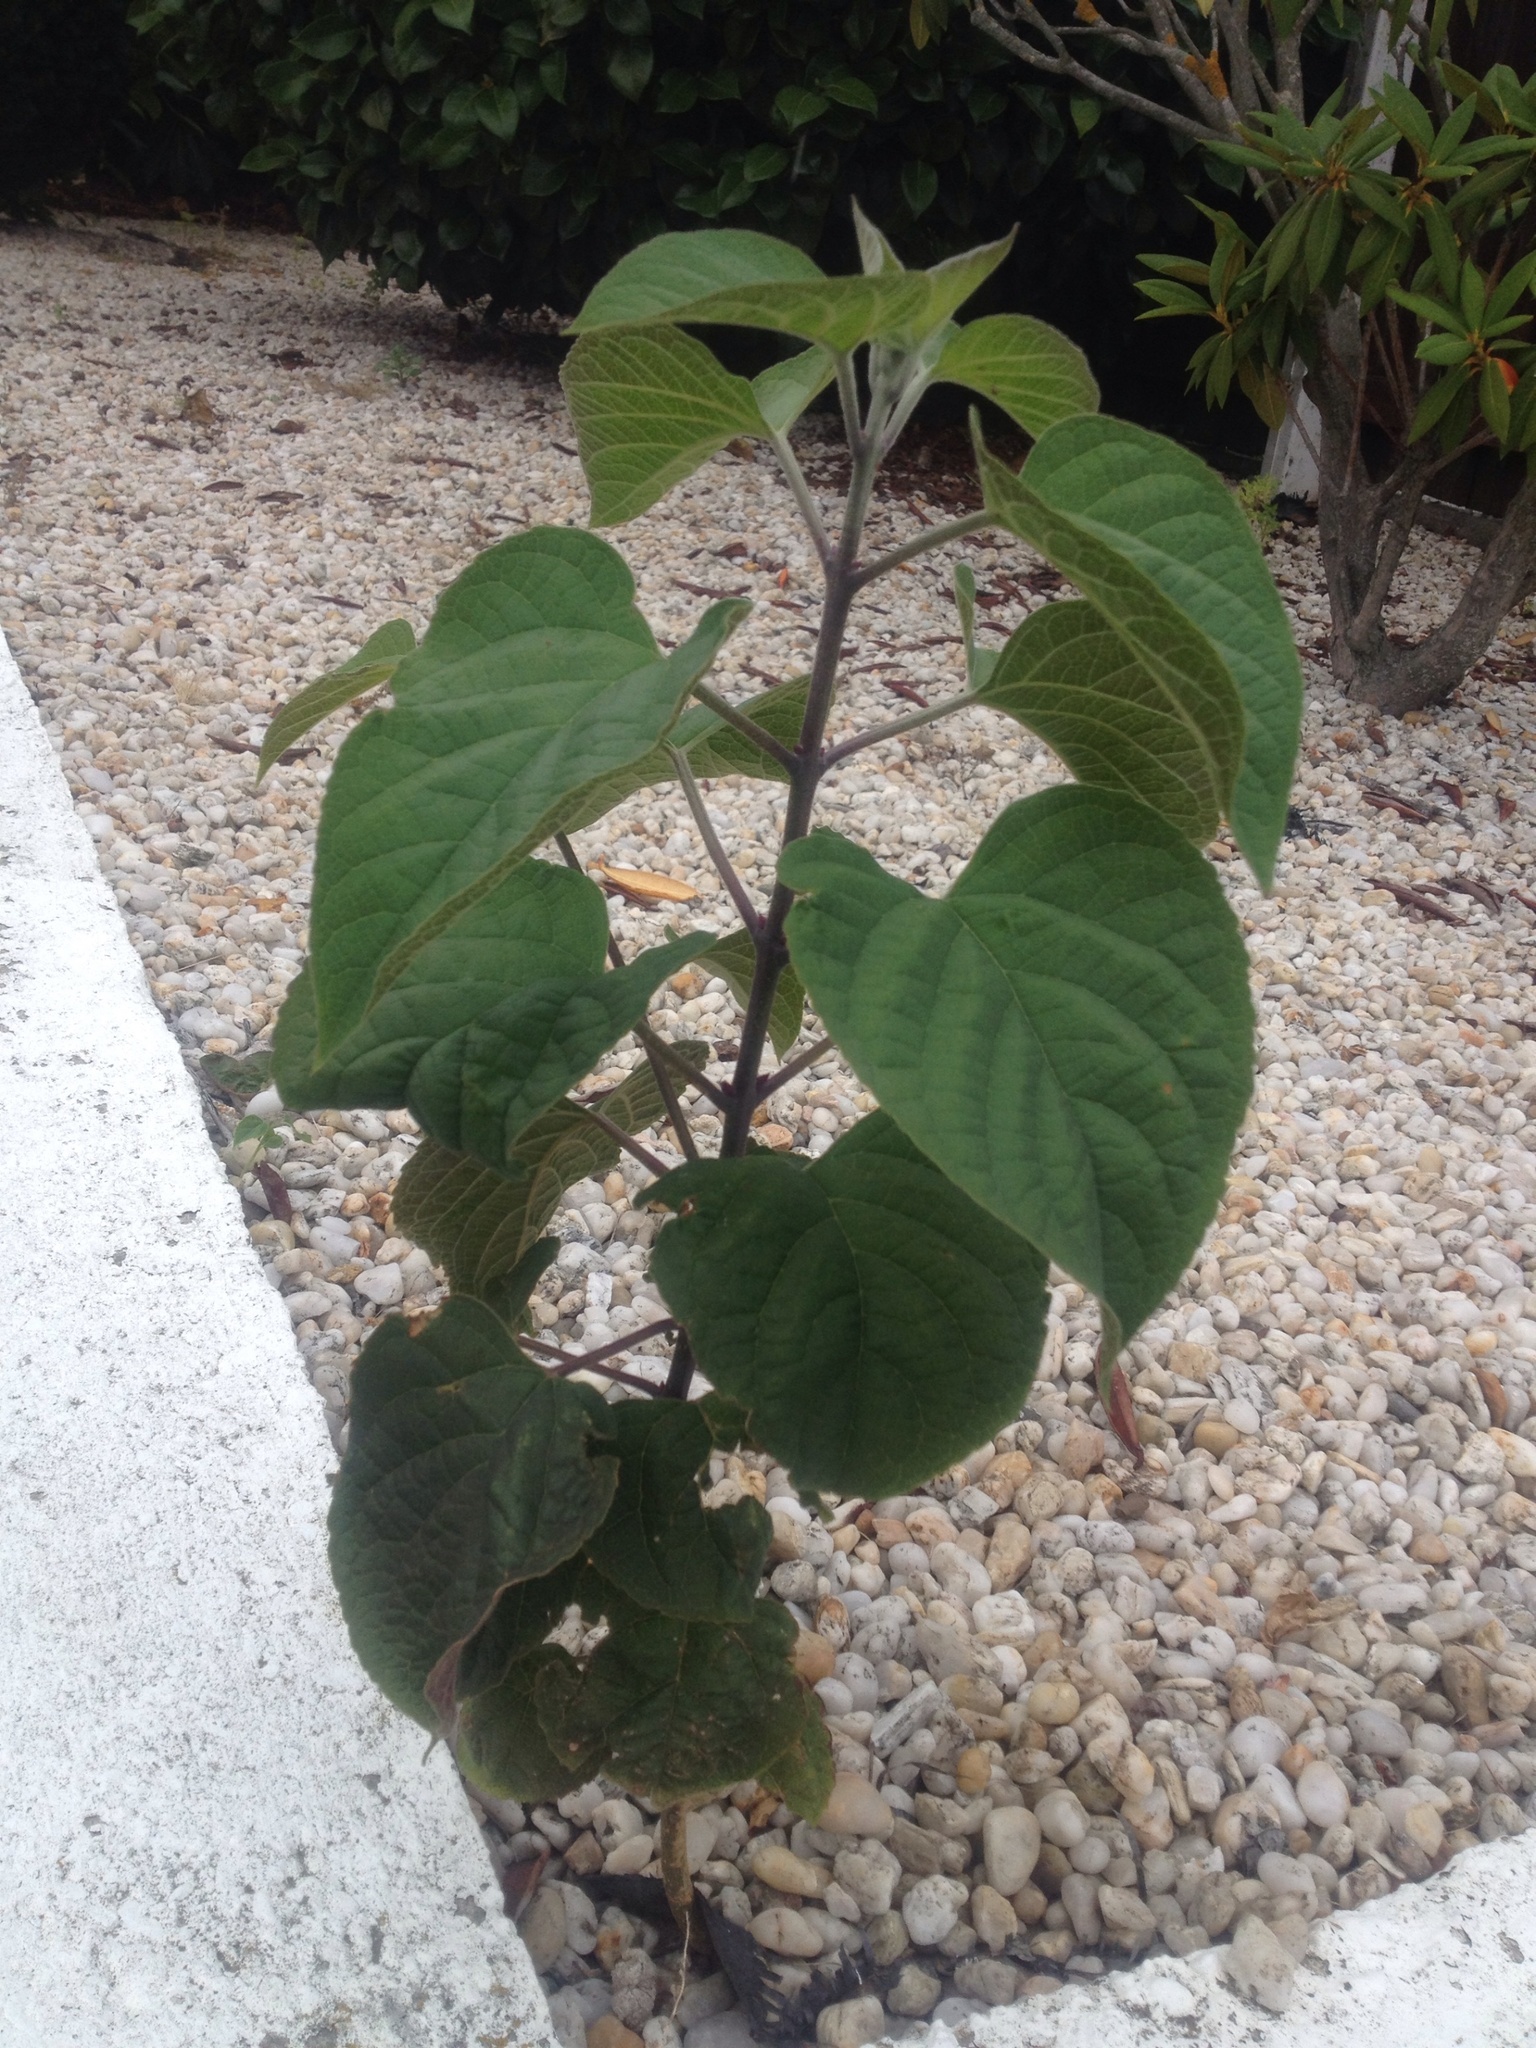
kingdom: Plantae
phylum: Tracheophyta
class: Magnoliopsida
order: Lamiales
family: Lamiaceae
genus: Clerodendrum
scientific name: Clerodendrum trichotomum
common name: Harlequin glorybower
